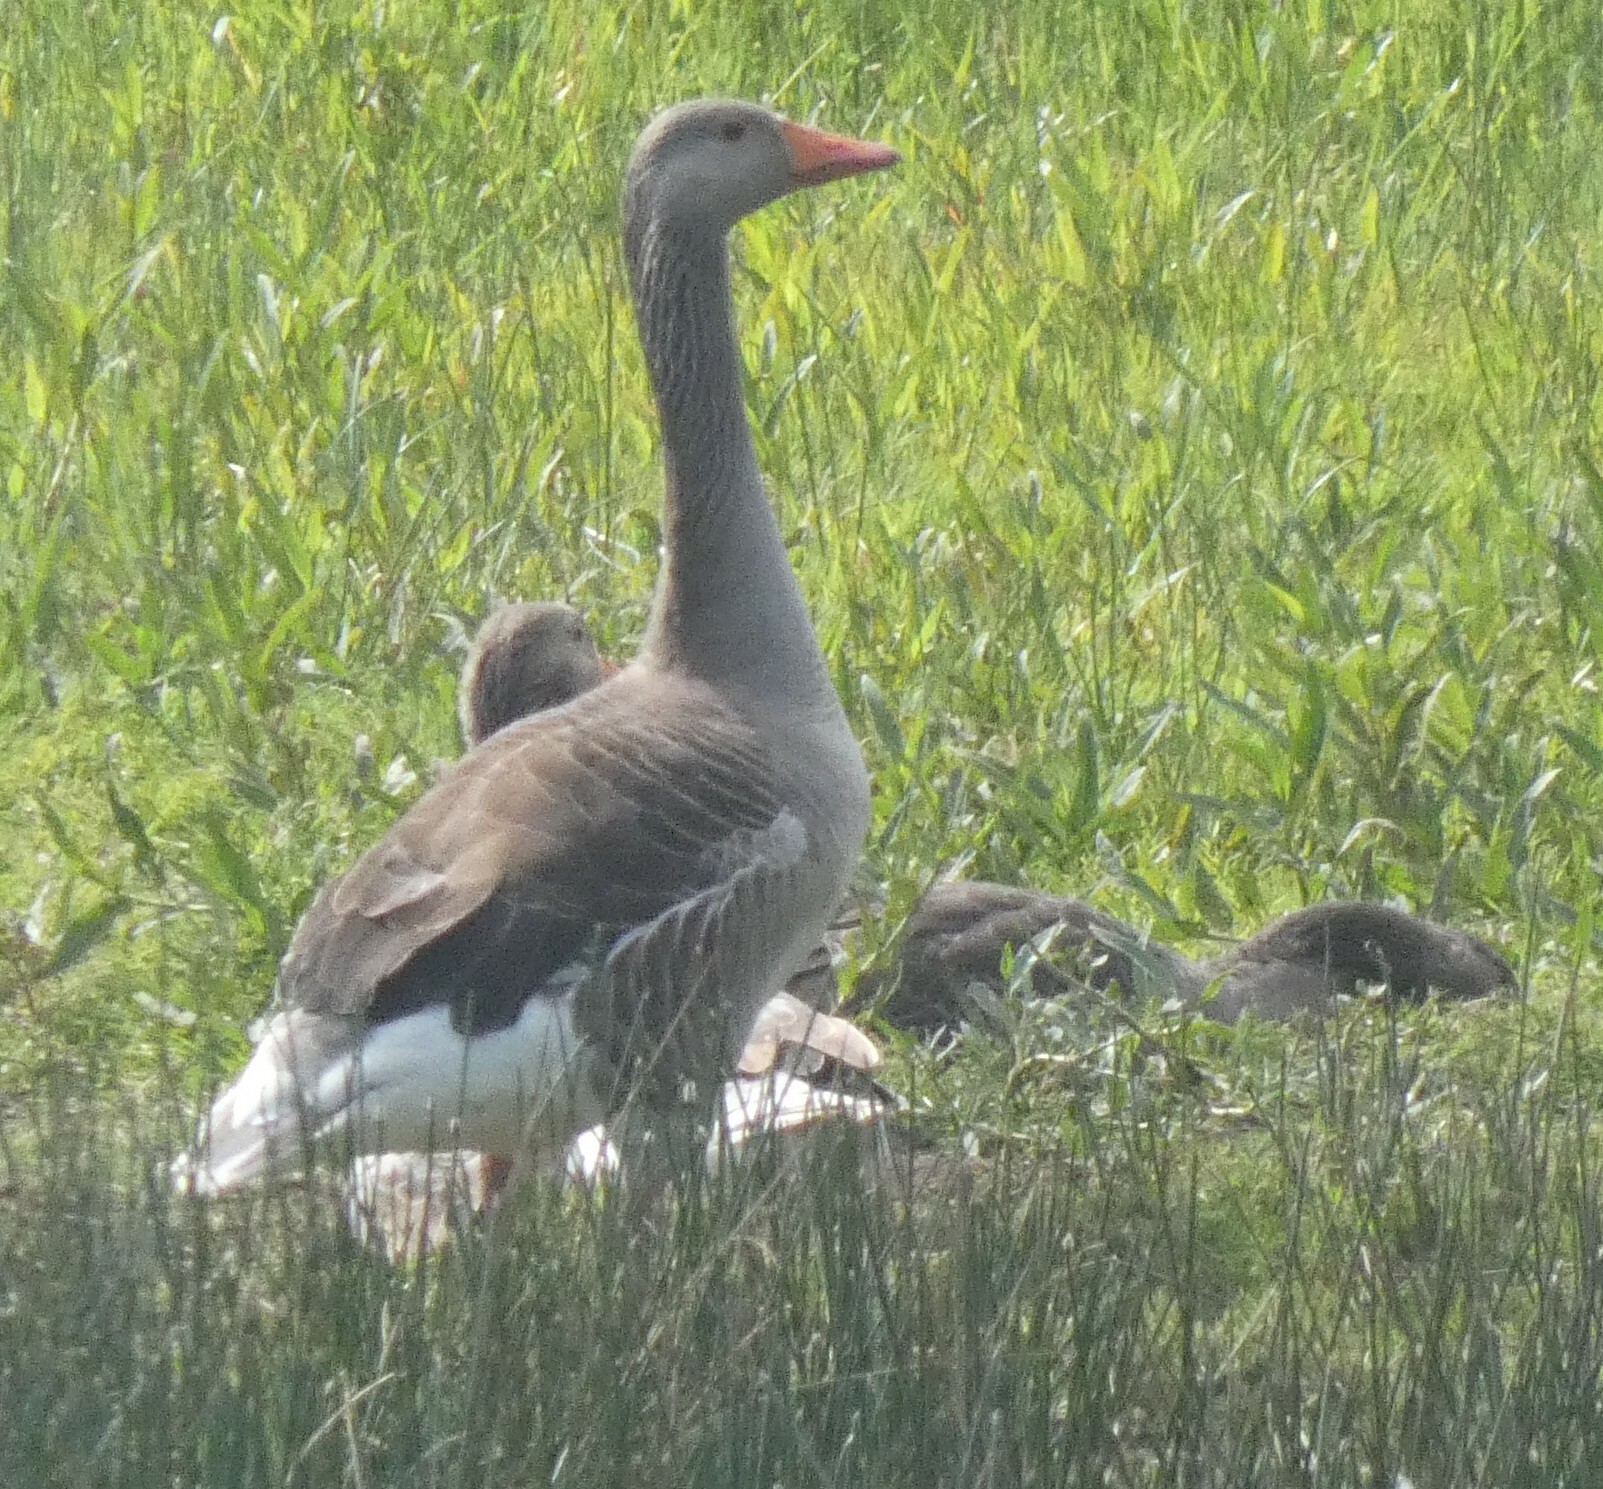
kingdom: Animalia
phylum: Chordata
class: Aves
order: Anseriformes
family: Anatidae
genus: Anser
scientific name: Anser anser
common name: Greylag goose
